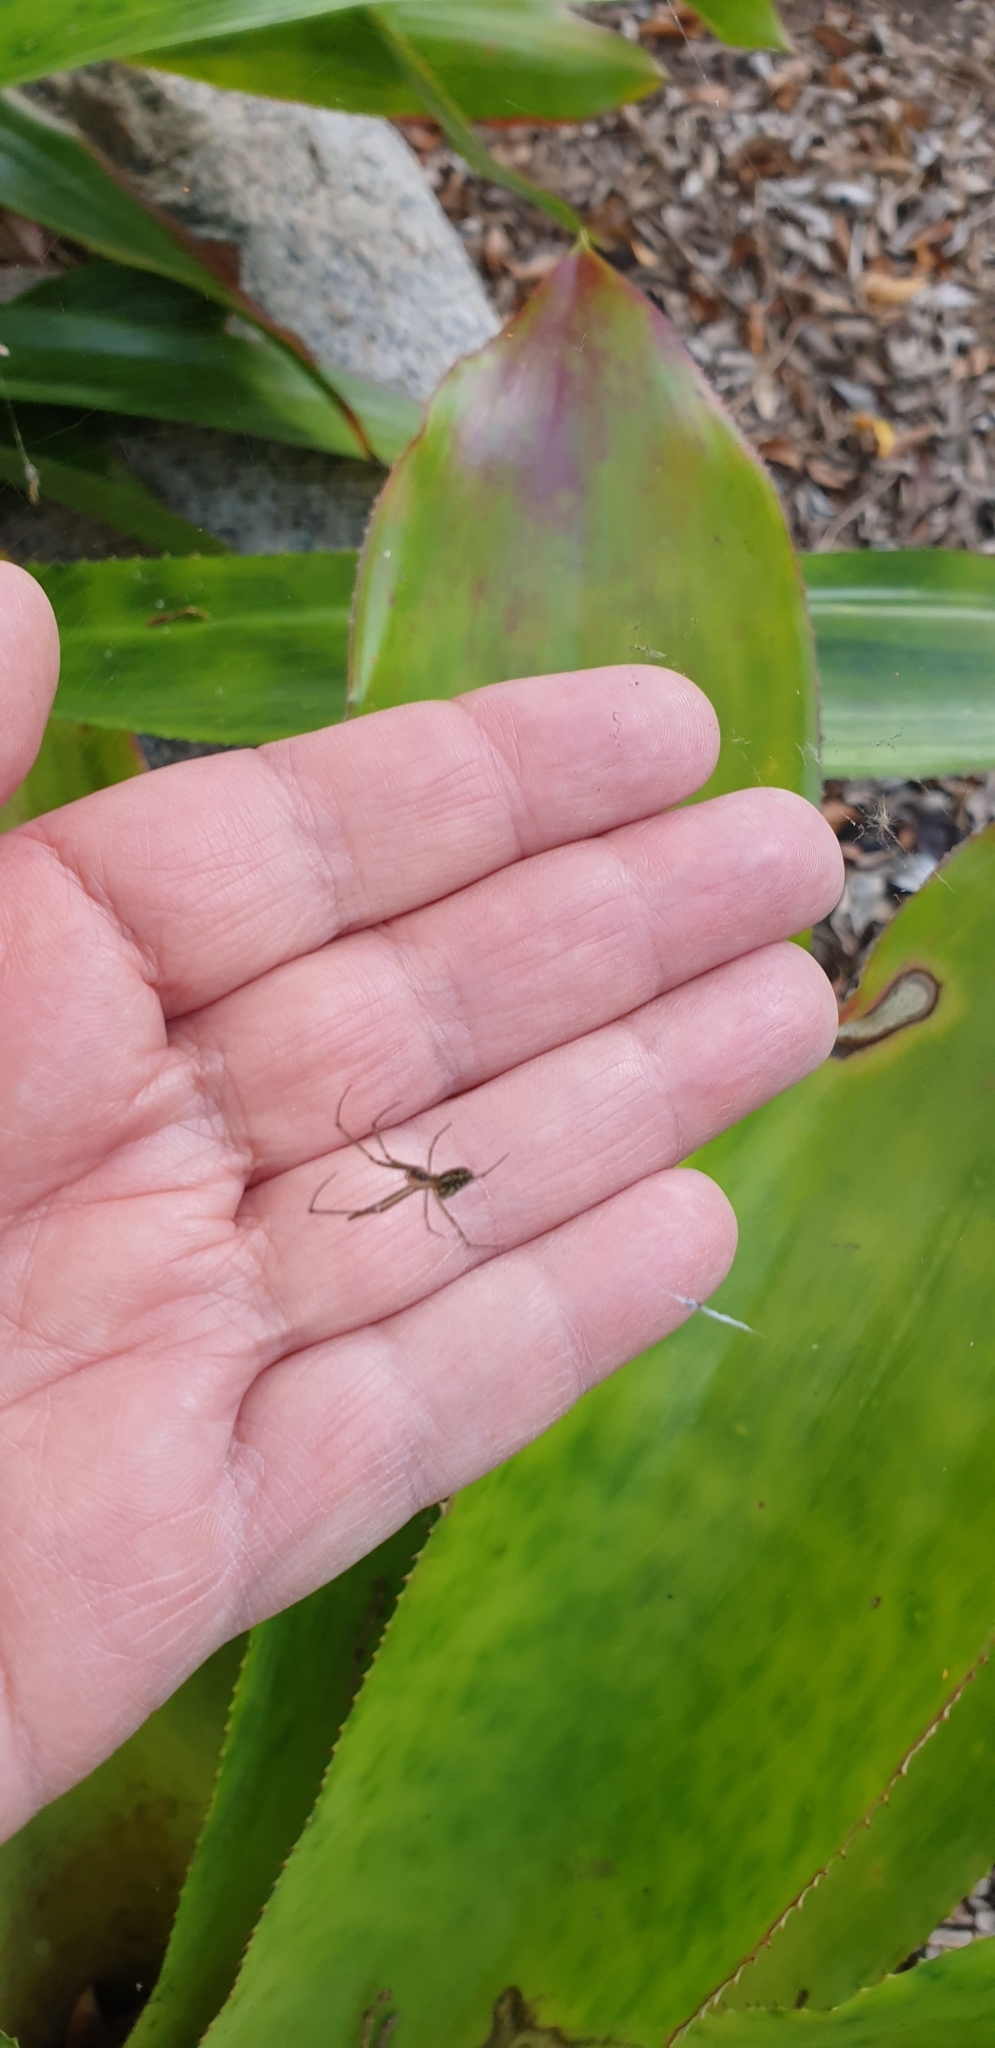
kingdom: Animalia
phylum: Arthropoda
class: Arachnida
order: Araneae
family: Tetragnathidae
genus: Leucauge
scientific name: Leucauge dromedaria
